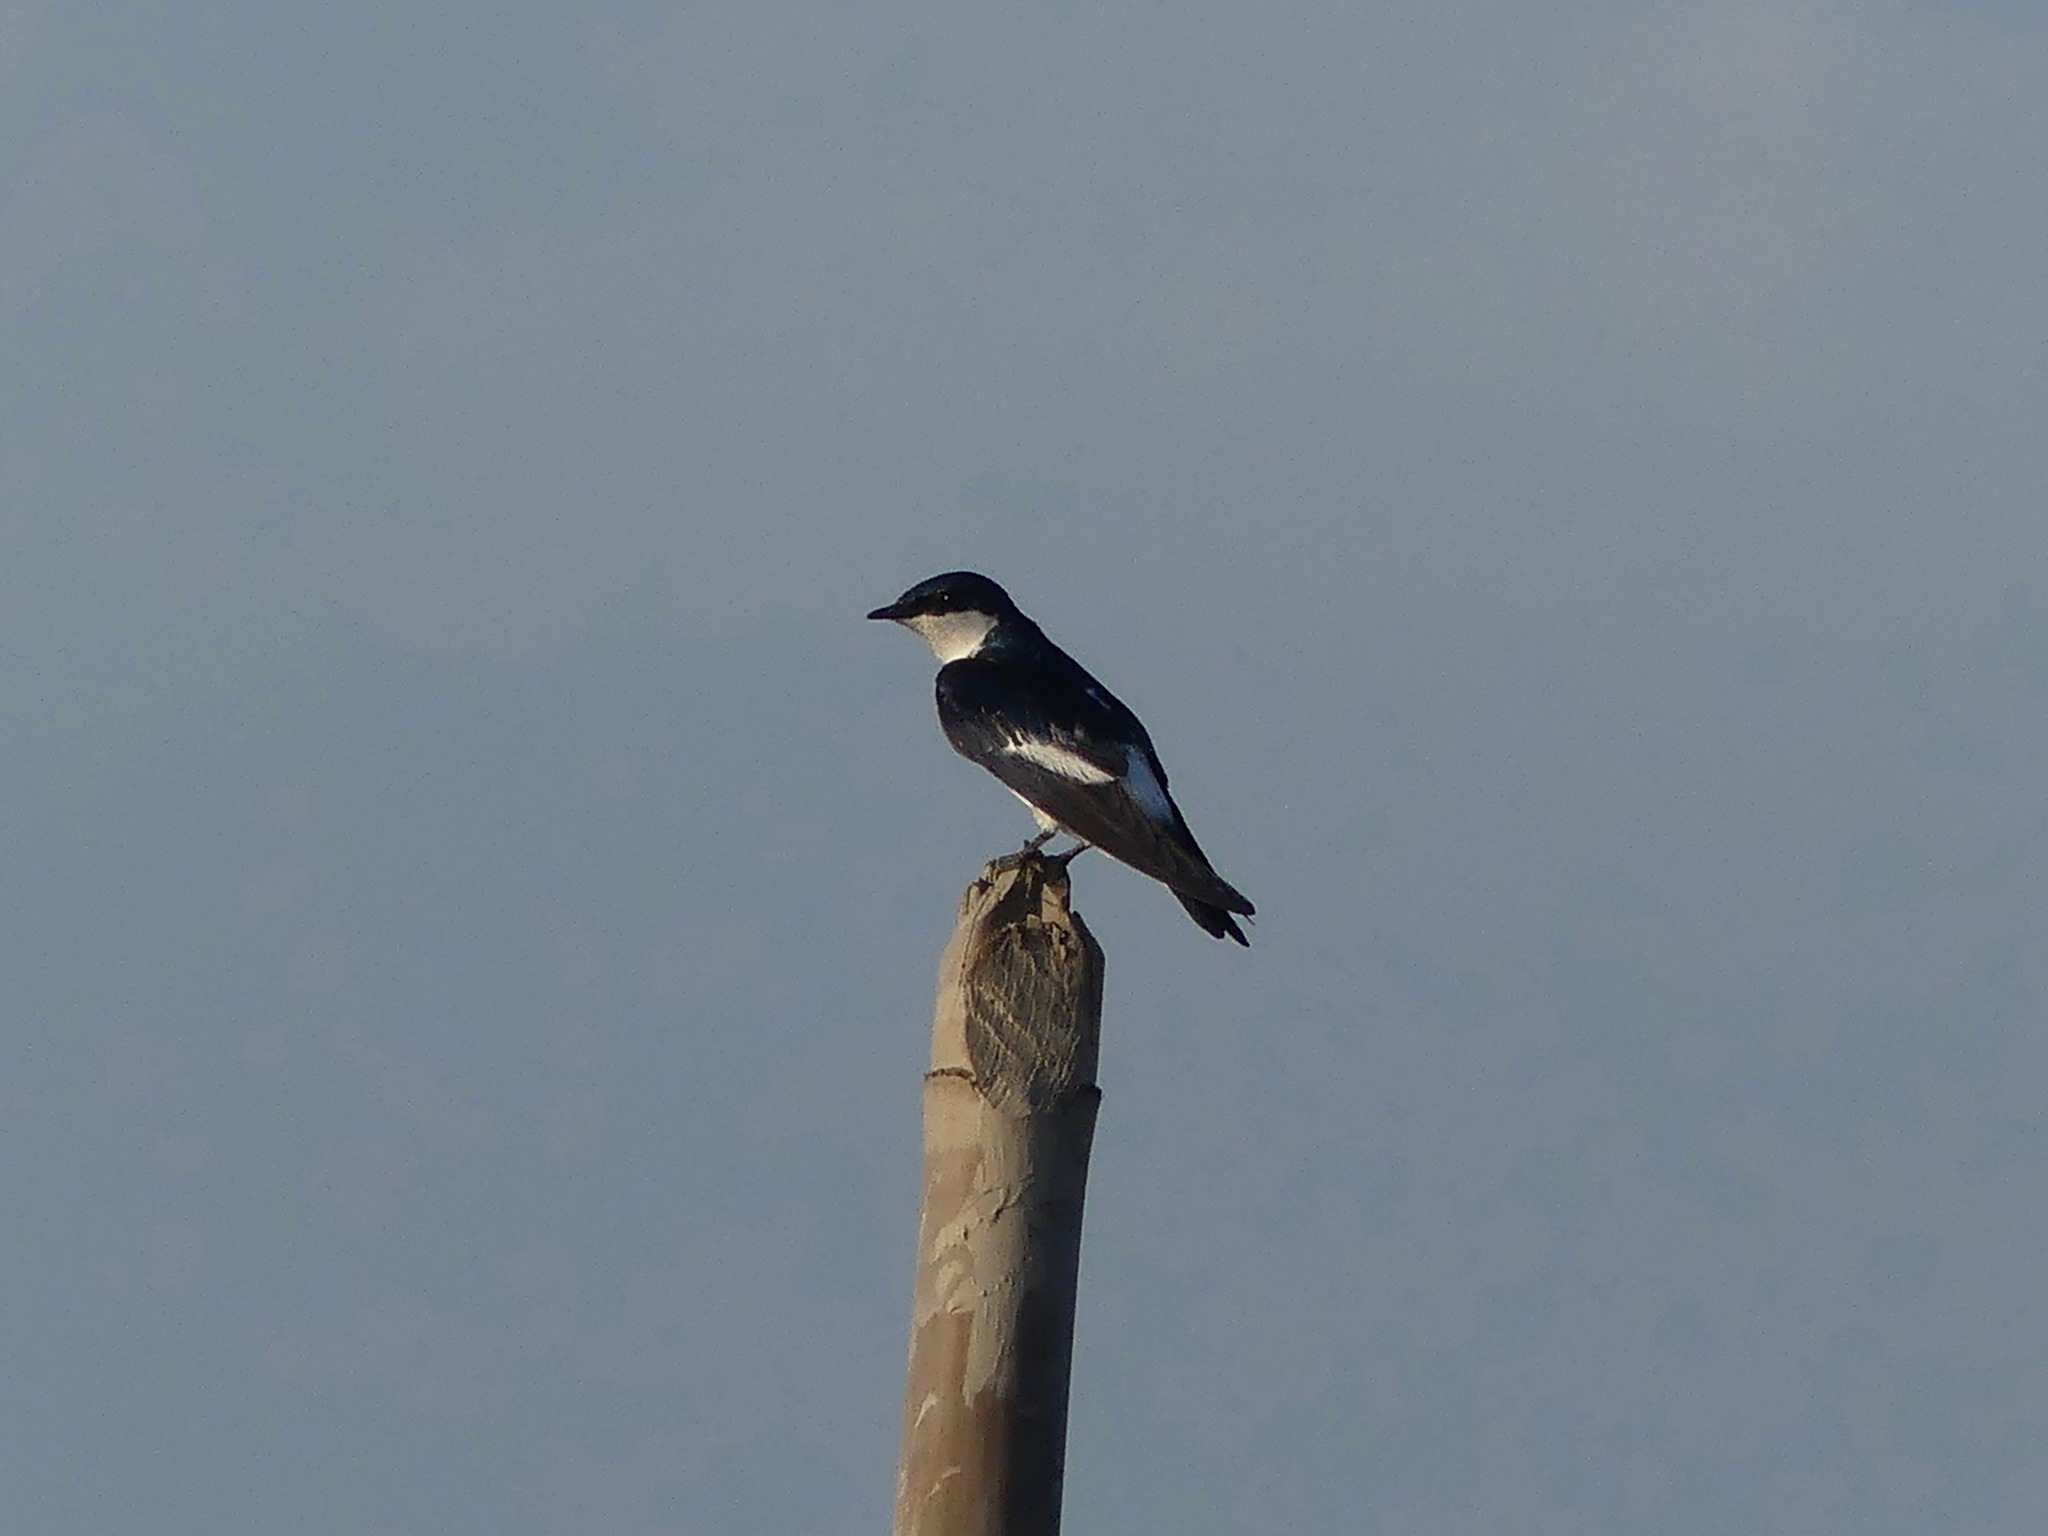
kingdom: Animalia
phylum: Chordata
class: Aves
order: Passeriformes
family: Hirundinidae
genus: Tachycineta
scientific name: Tachycineta albiventer
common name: White-winged swallow
